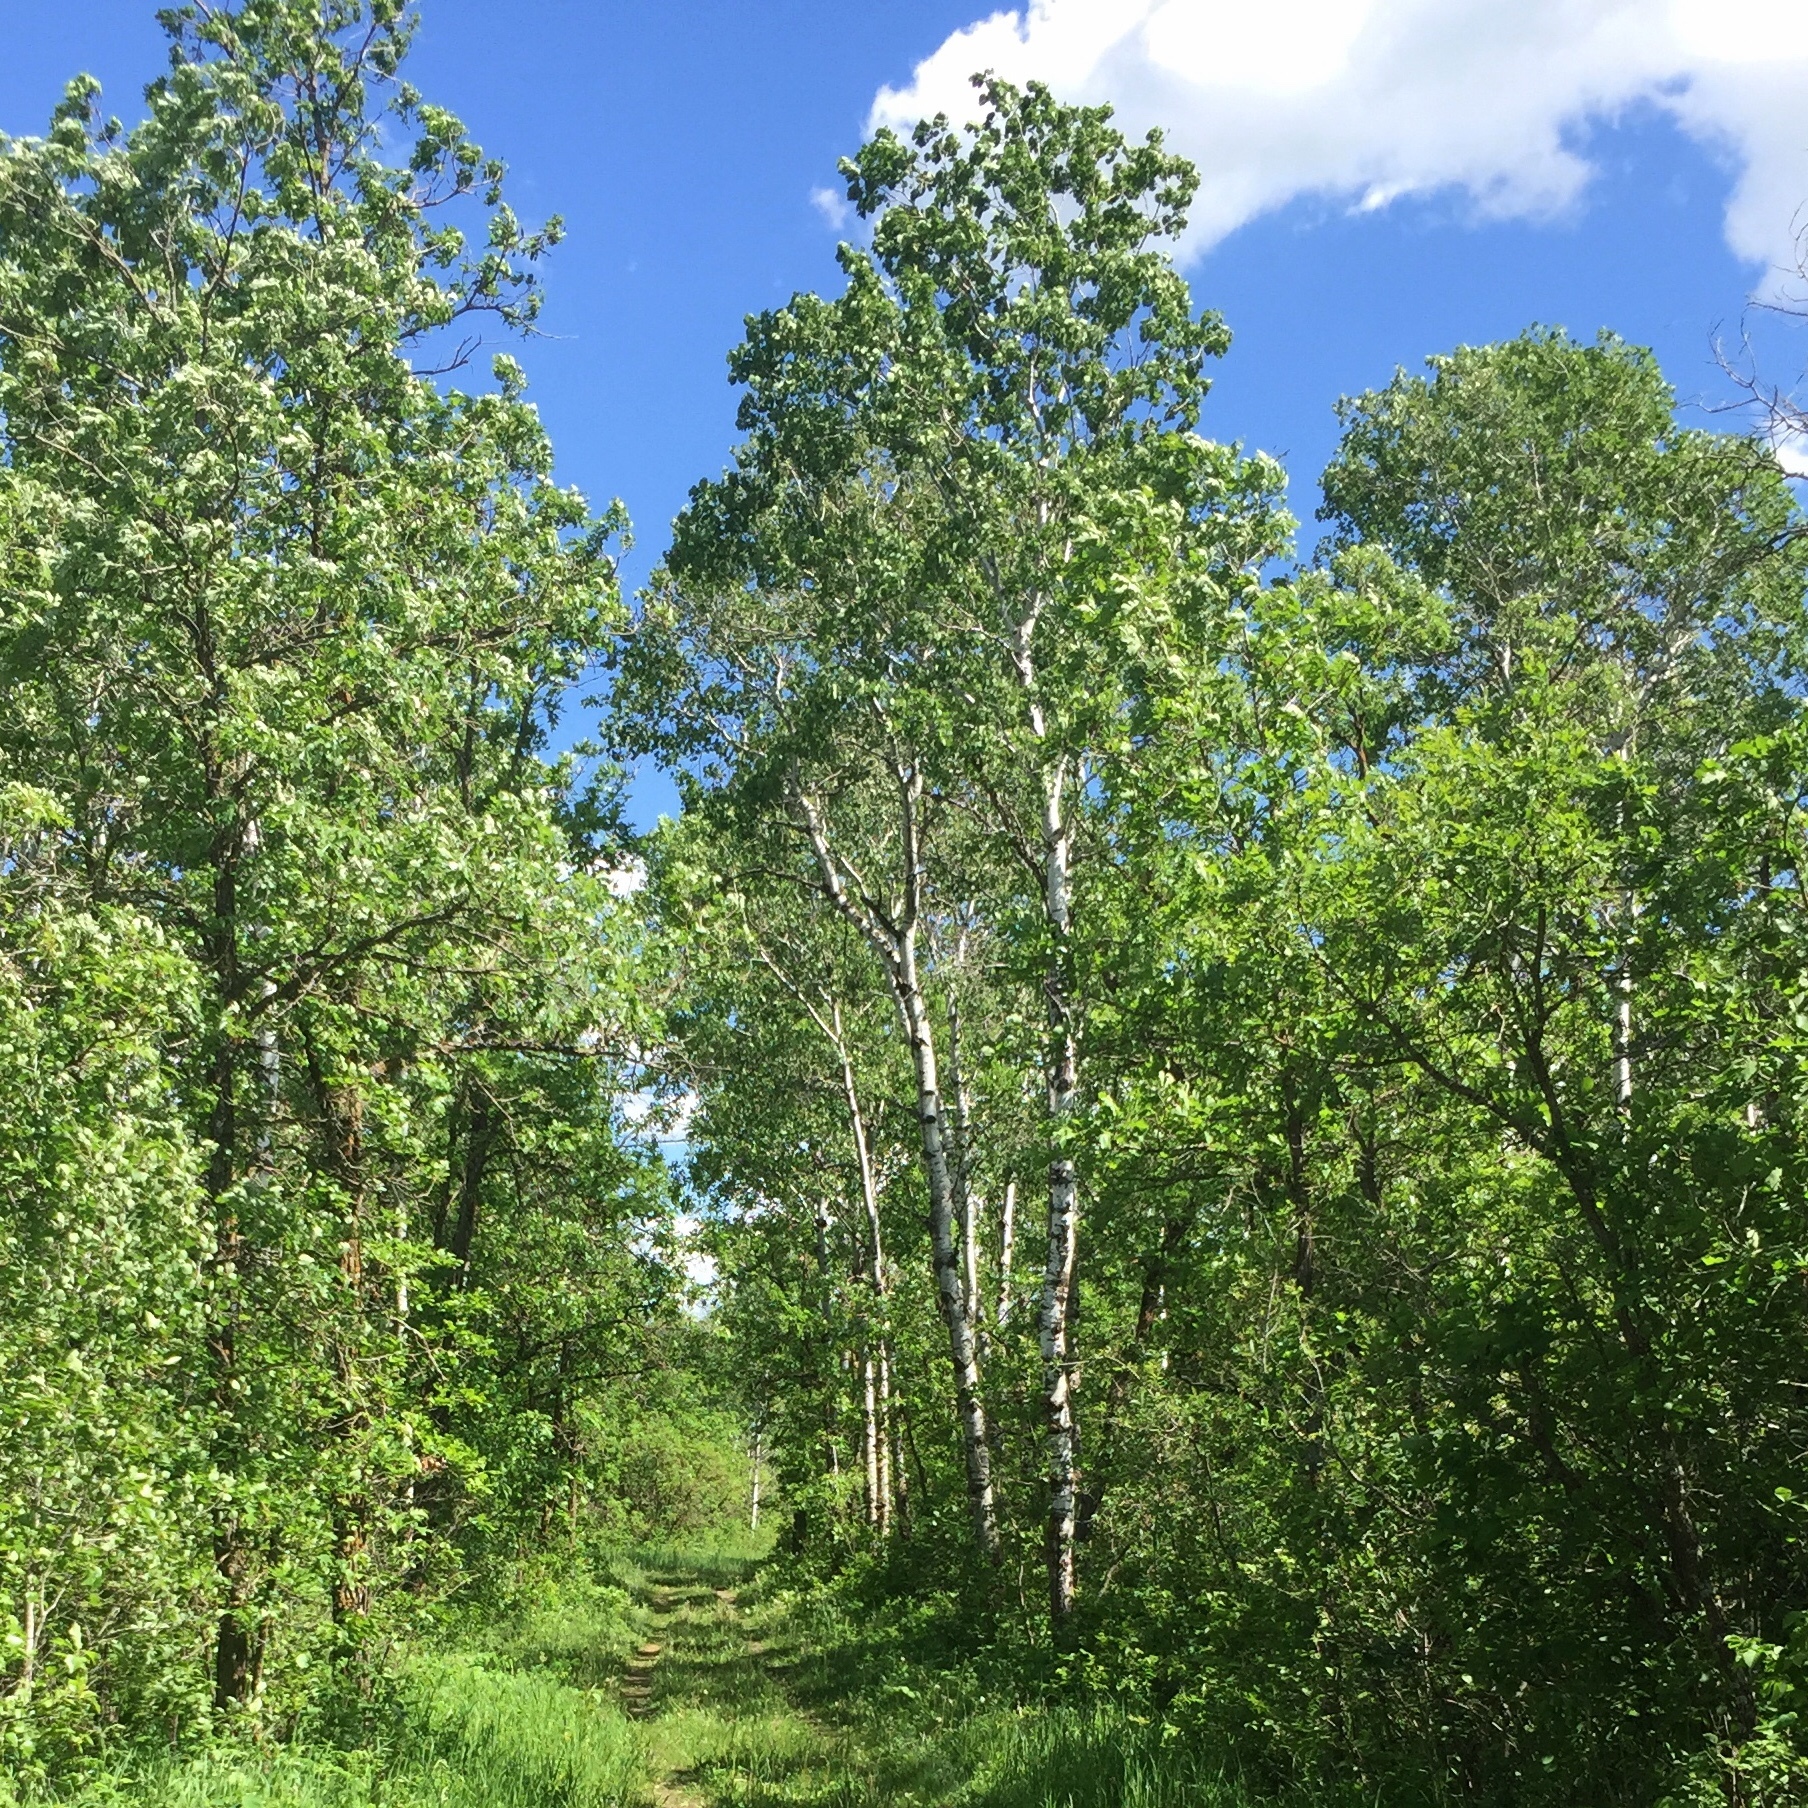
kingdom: Plantae
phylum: Tracheophyta
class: Magnoliopsida
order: Malpighiales
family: Salicaceae
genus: Populus
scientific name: Populus tremuloides
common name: Quaking aspen
